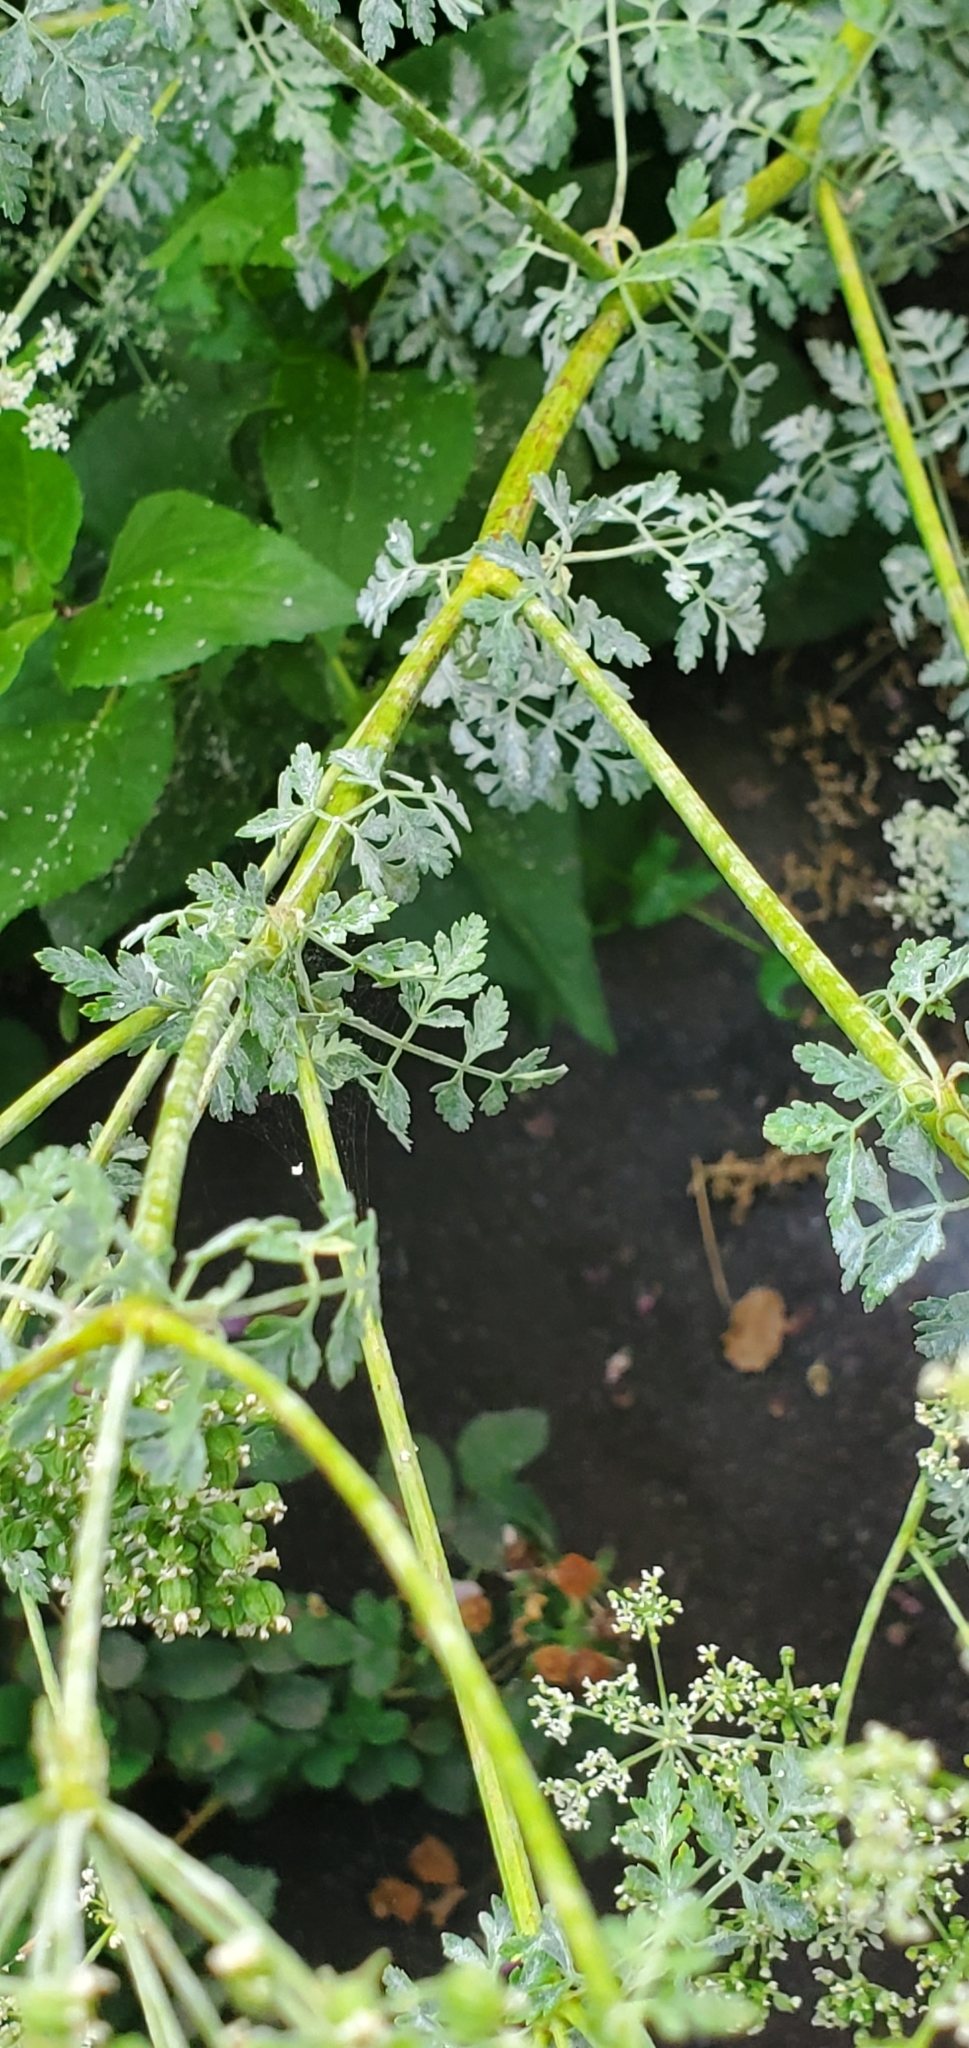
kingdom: Plantae
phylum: Tracheophyta
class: Magnoliopsida
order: Apiales
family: Apiaceae
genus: Conium
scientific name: Conium maculatum
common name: Hemlock
